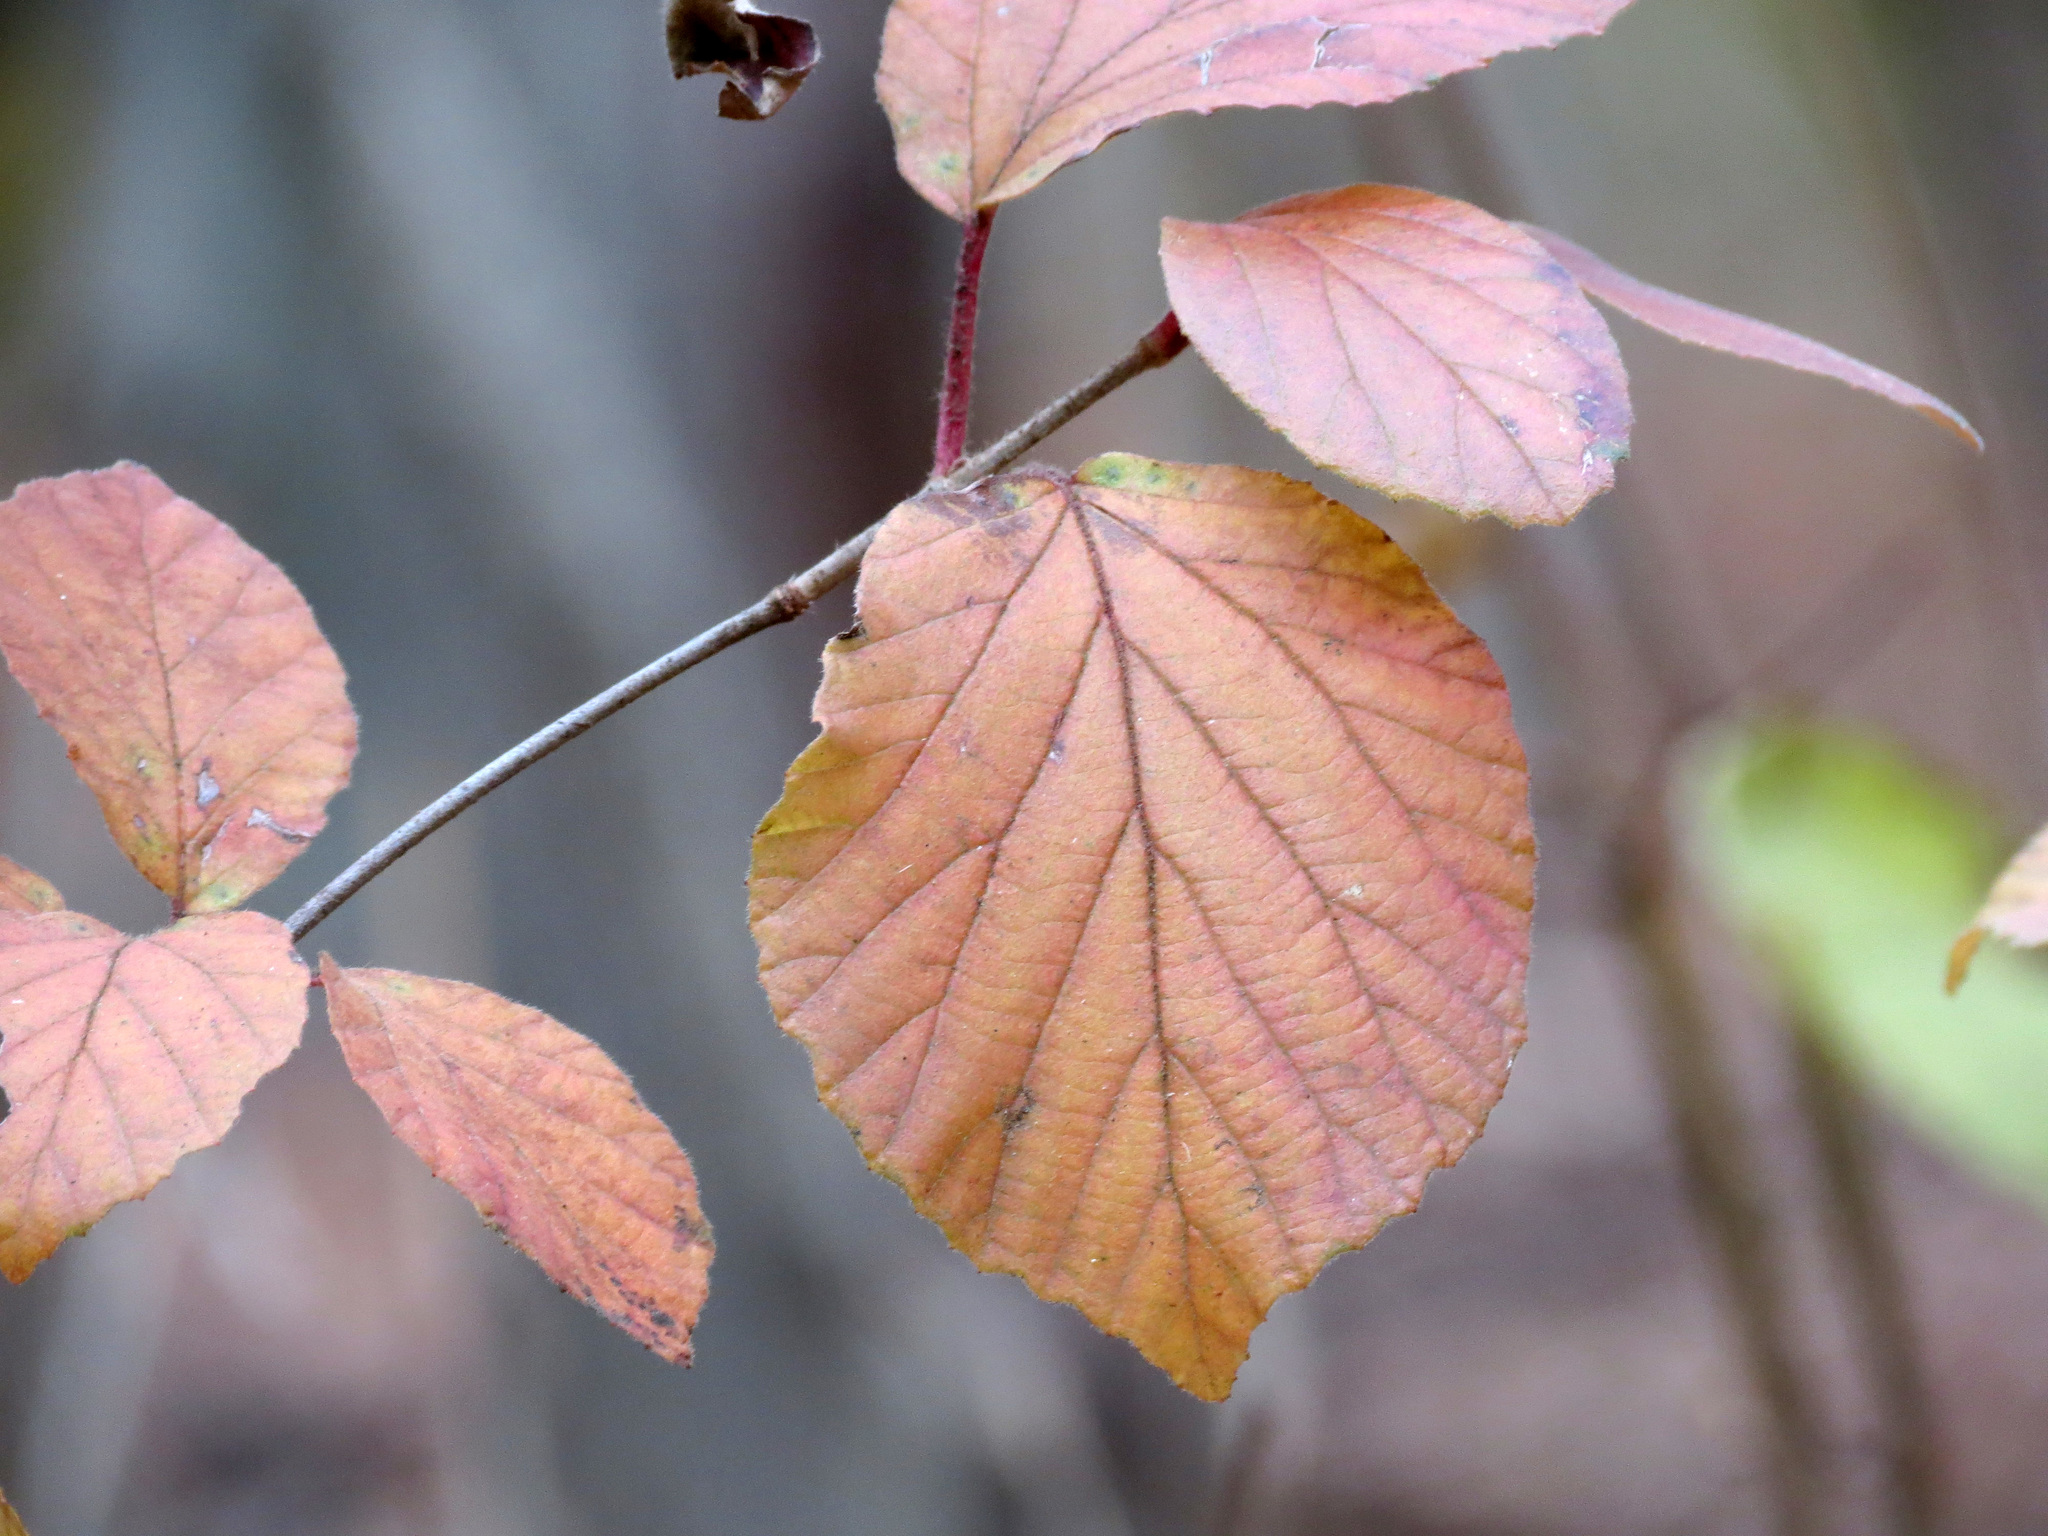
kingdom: Plantae
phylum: Tracheophyta
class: Magnoliopsida
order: Dipsacales
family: Viburnaceae
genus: Viburnum
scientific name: Viburnum dilatatum
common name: Linden arrowwood
